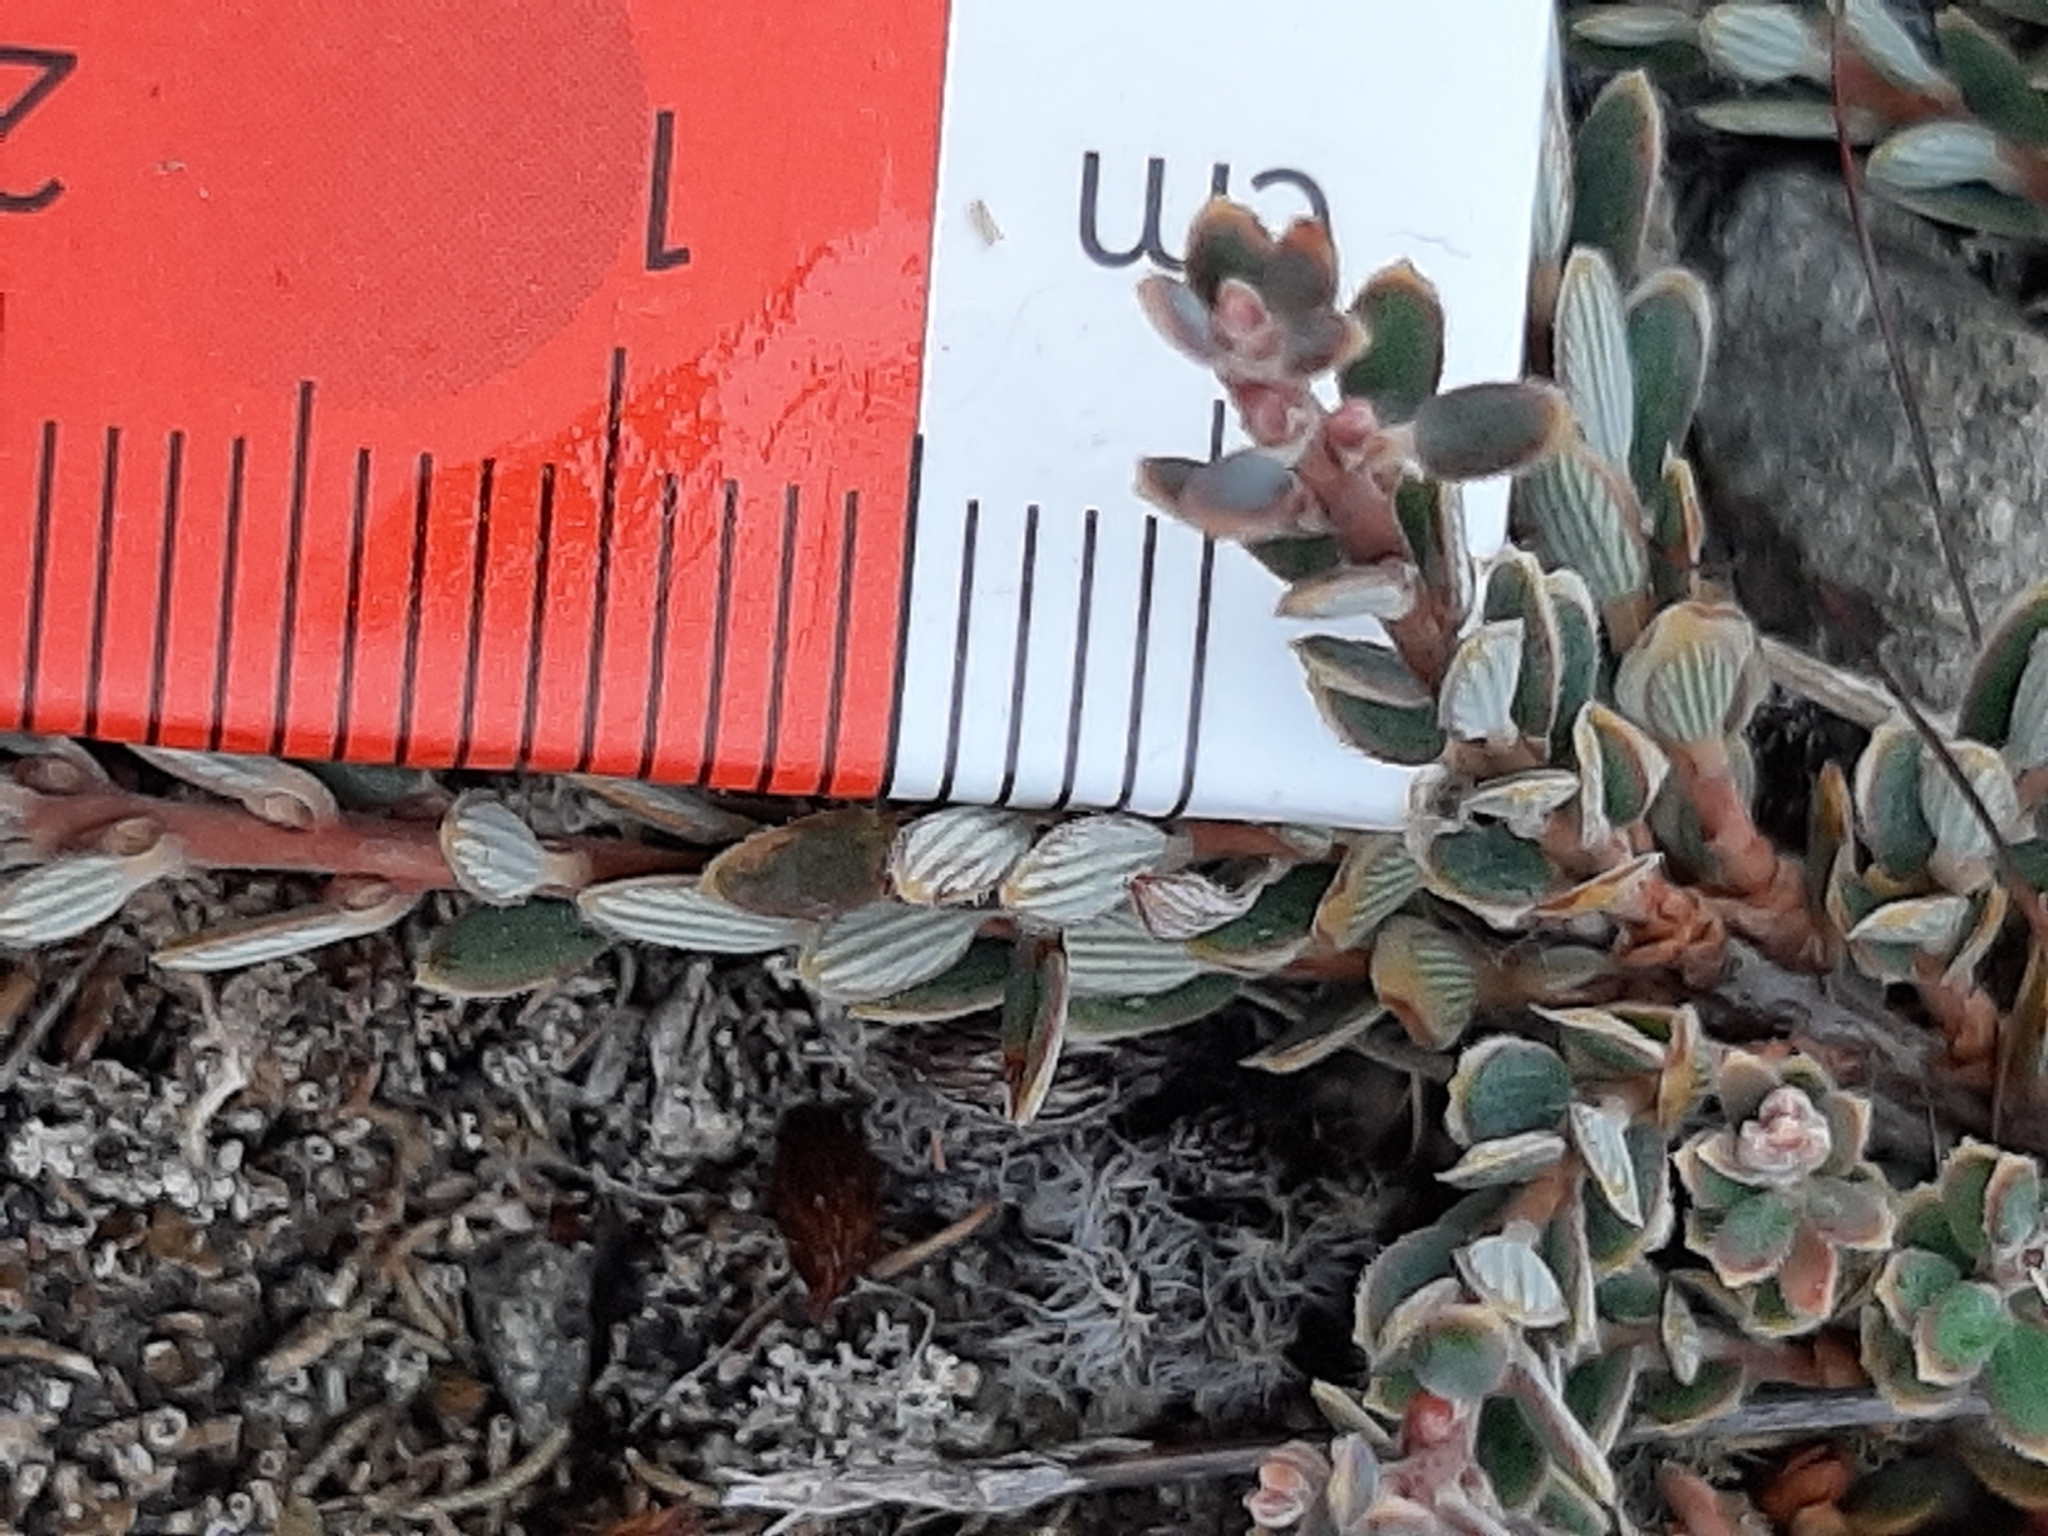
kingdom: Plantae
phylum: Tracheophyta
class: Magnoliopsida
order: Ericales
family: Ericaceae
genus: Acrothamnus
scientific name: Acrothamnus colensoi
